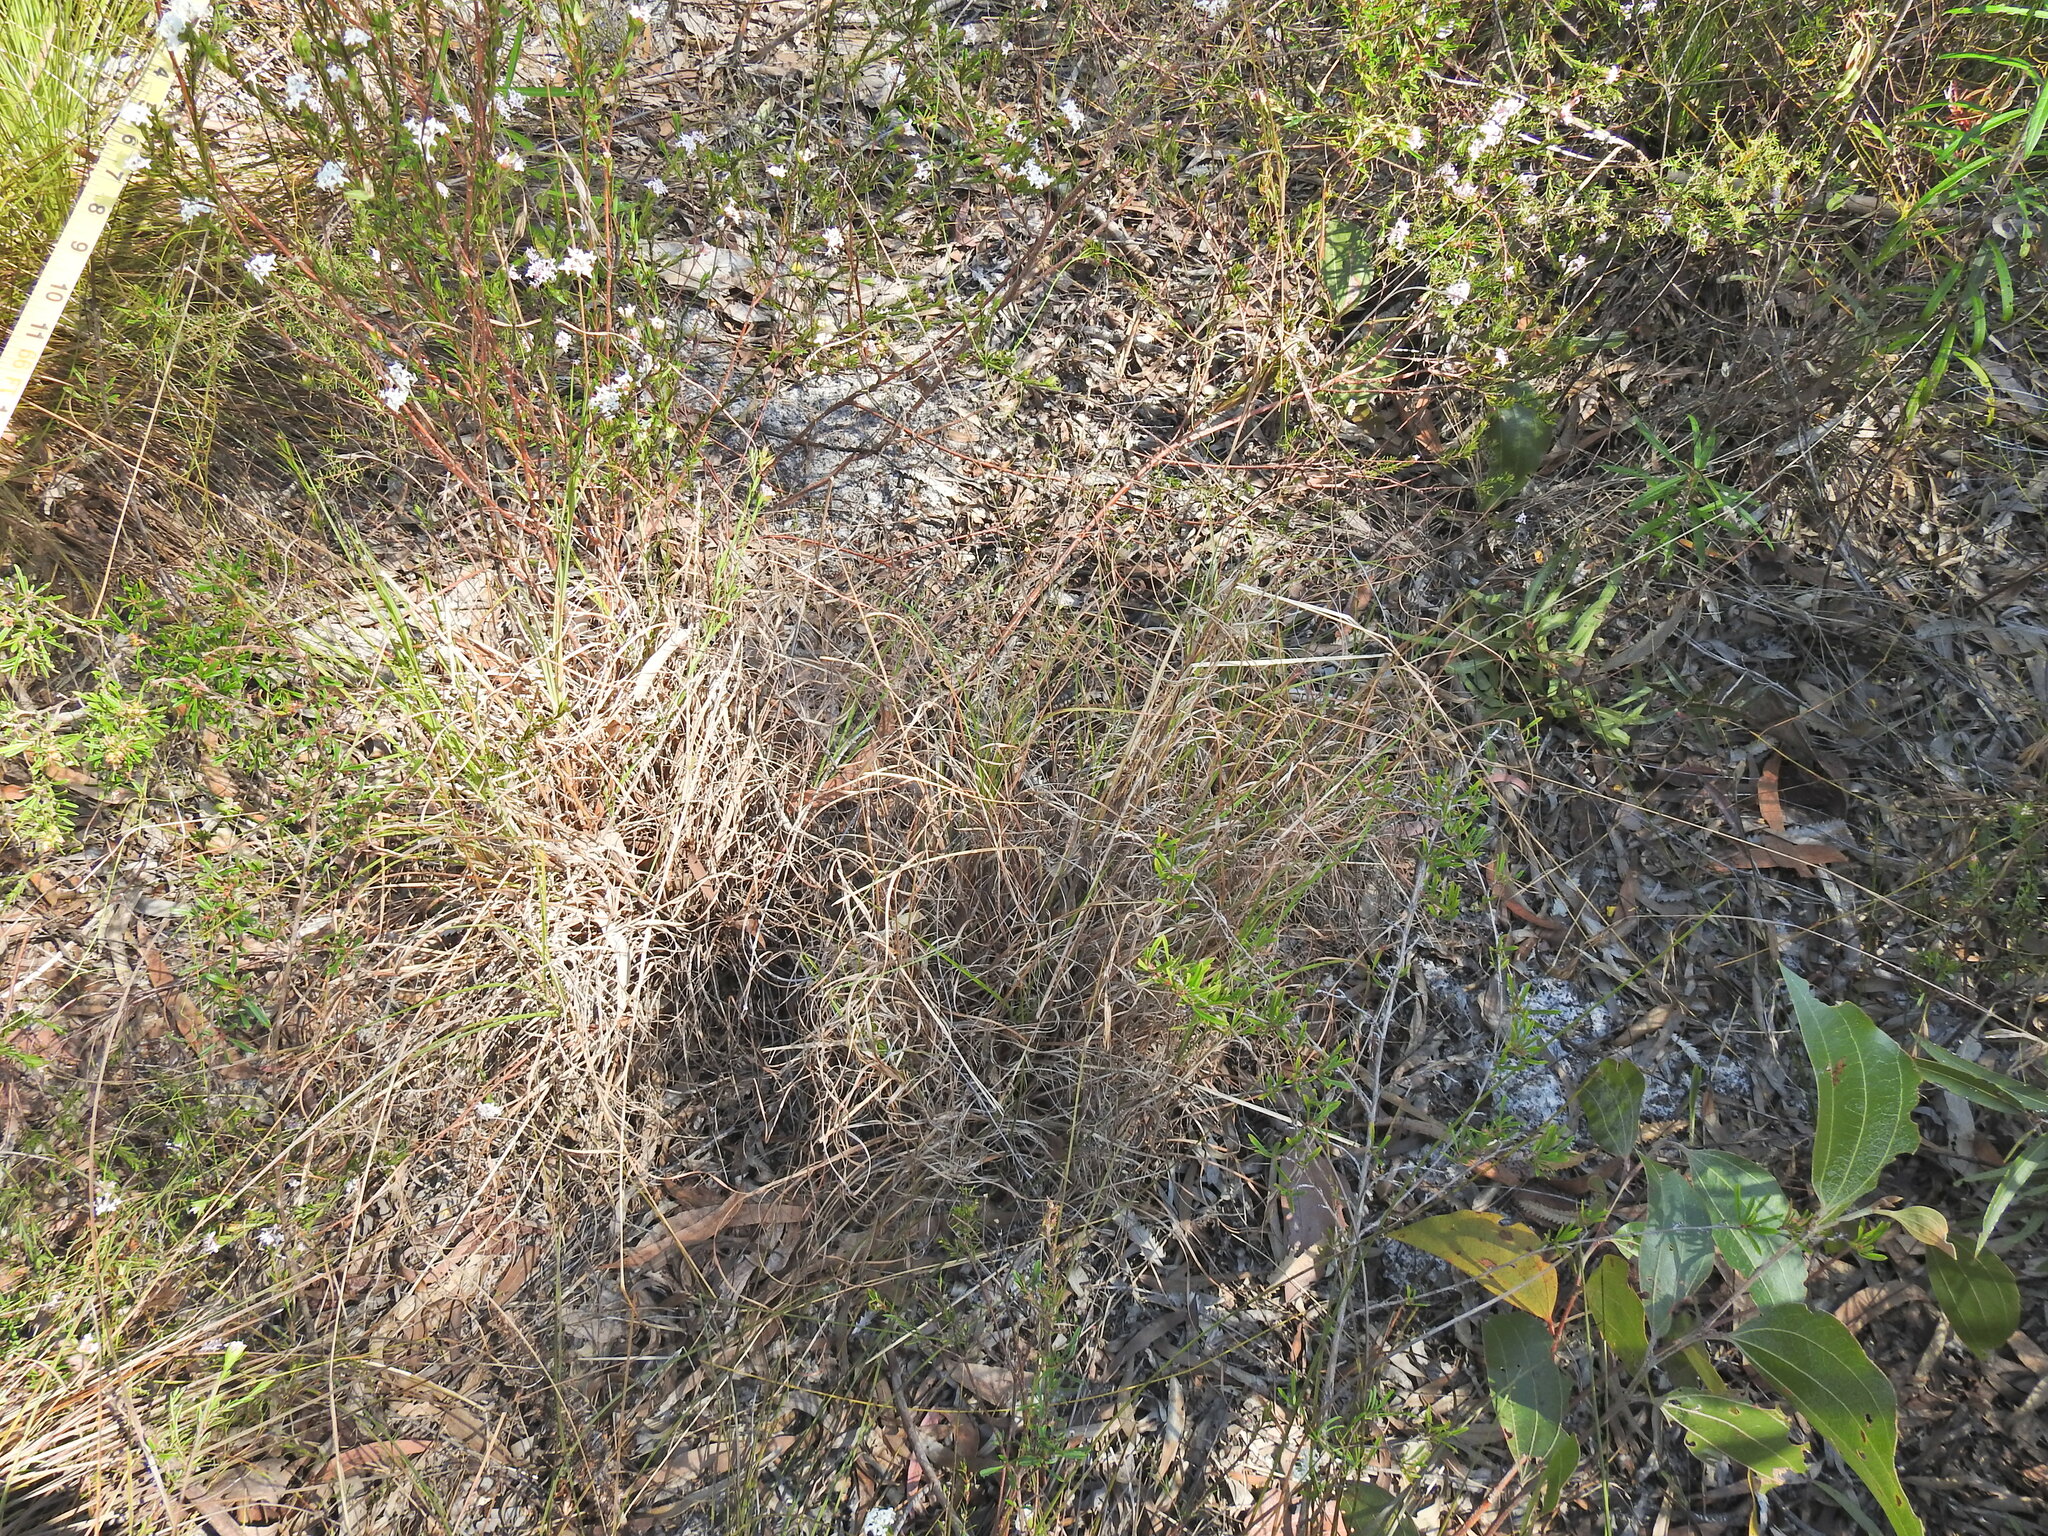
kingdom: Plantae
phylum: Tracheophyta
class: Liliopsida
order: Poales
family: Poaceae
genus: Themeda
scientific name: Themeda triandra
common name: Kangaroo grass
